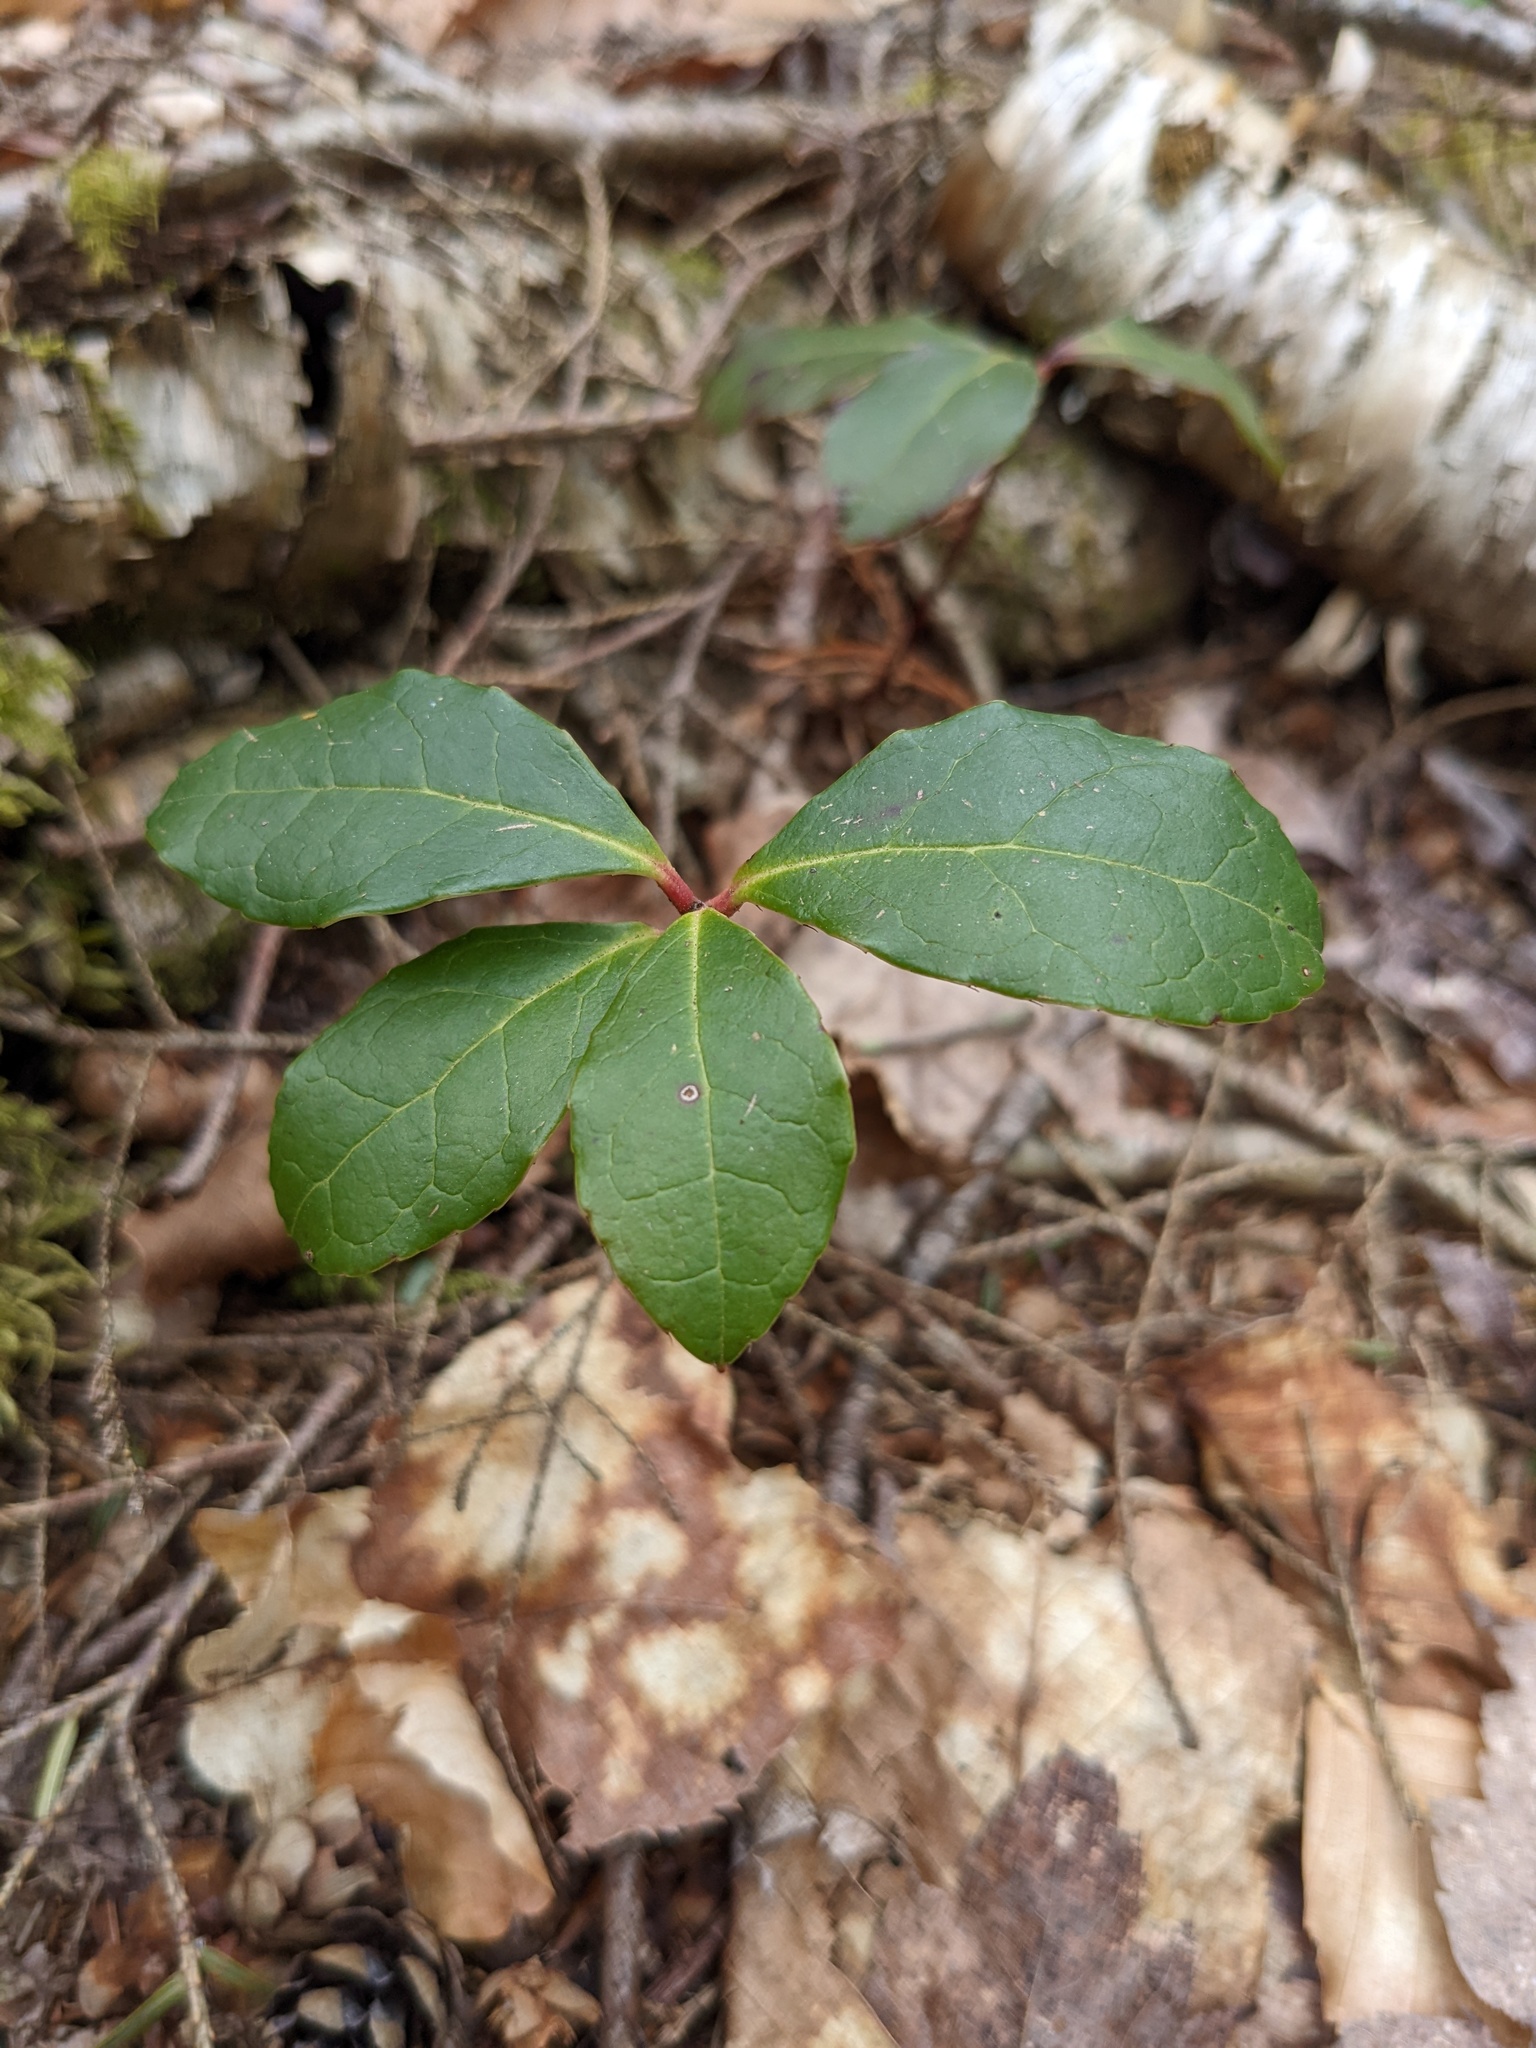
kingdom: Plantae
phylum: Tracheophyta
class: Magnoliopsida
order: Ericales
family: Ericaceae
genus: Gaultheria
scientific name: Gaultheria procumbens
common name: Checkerberry
